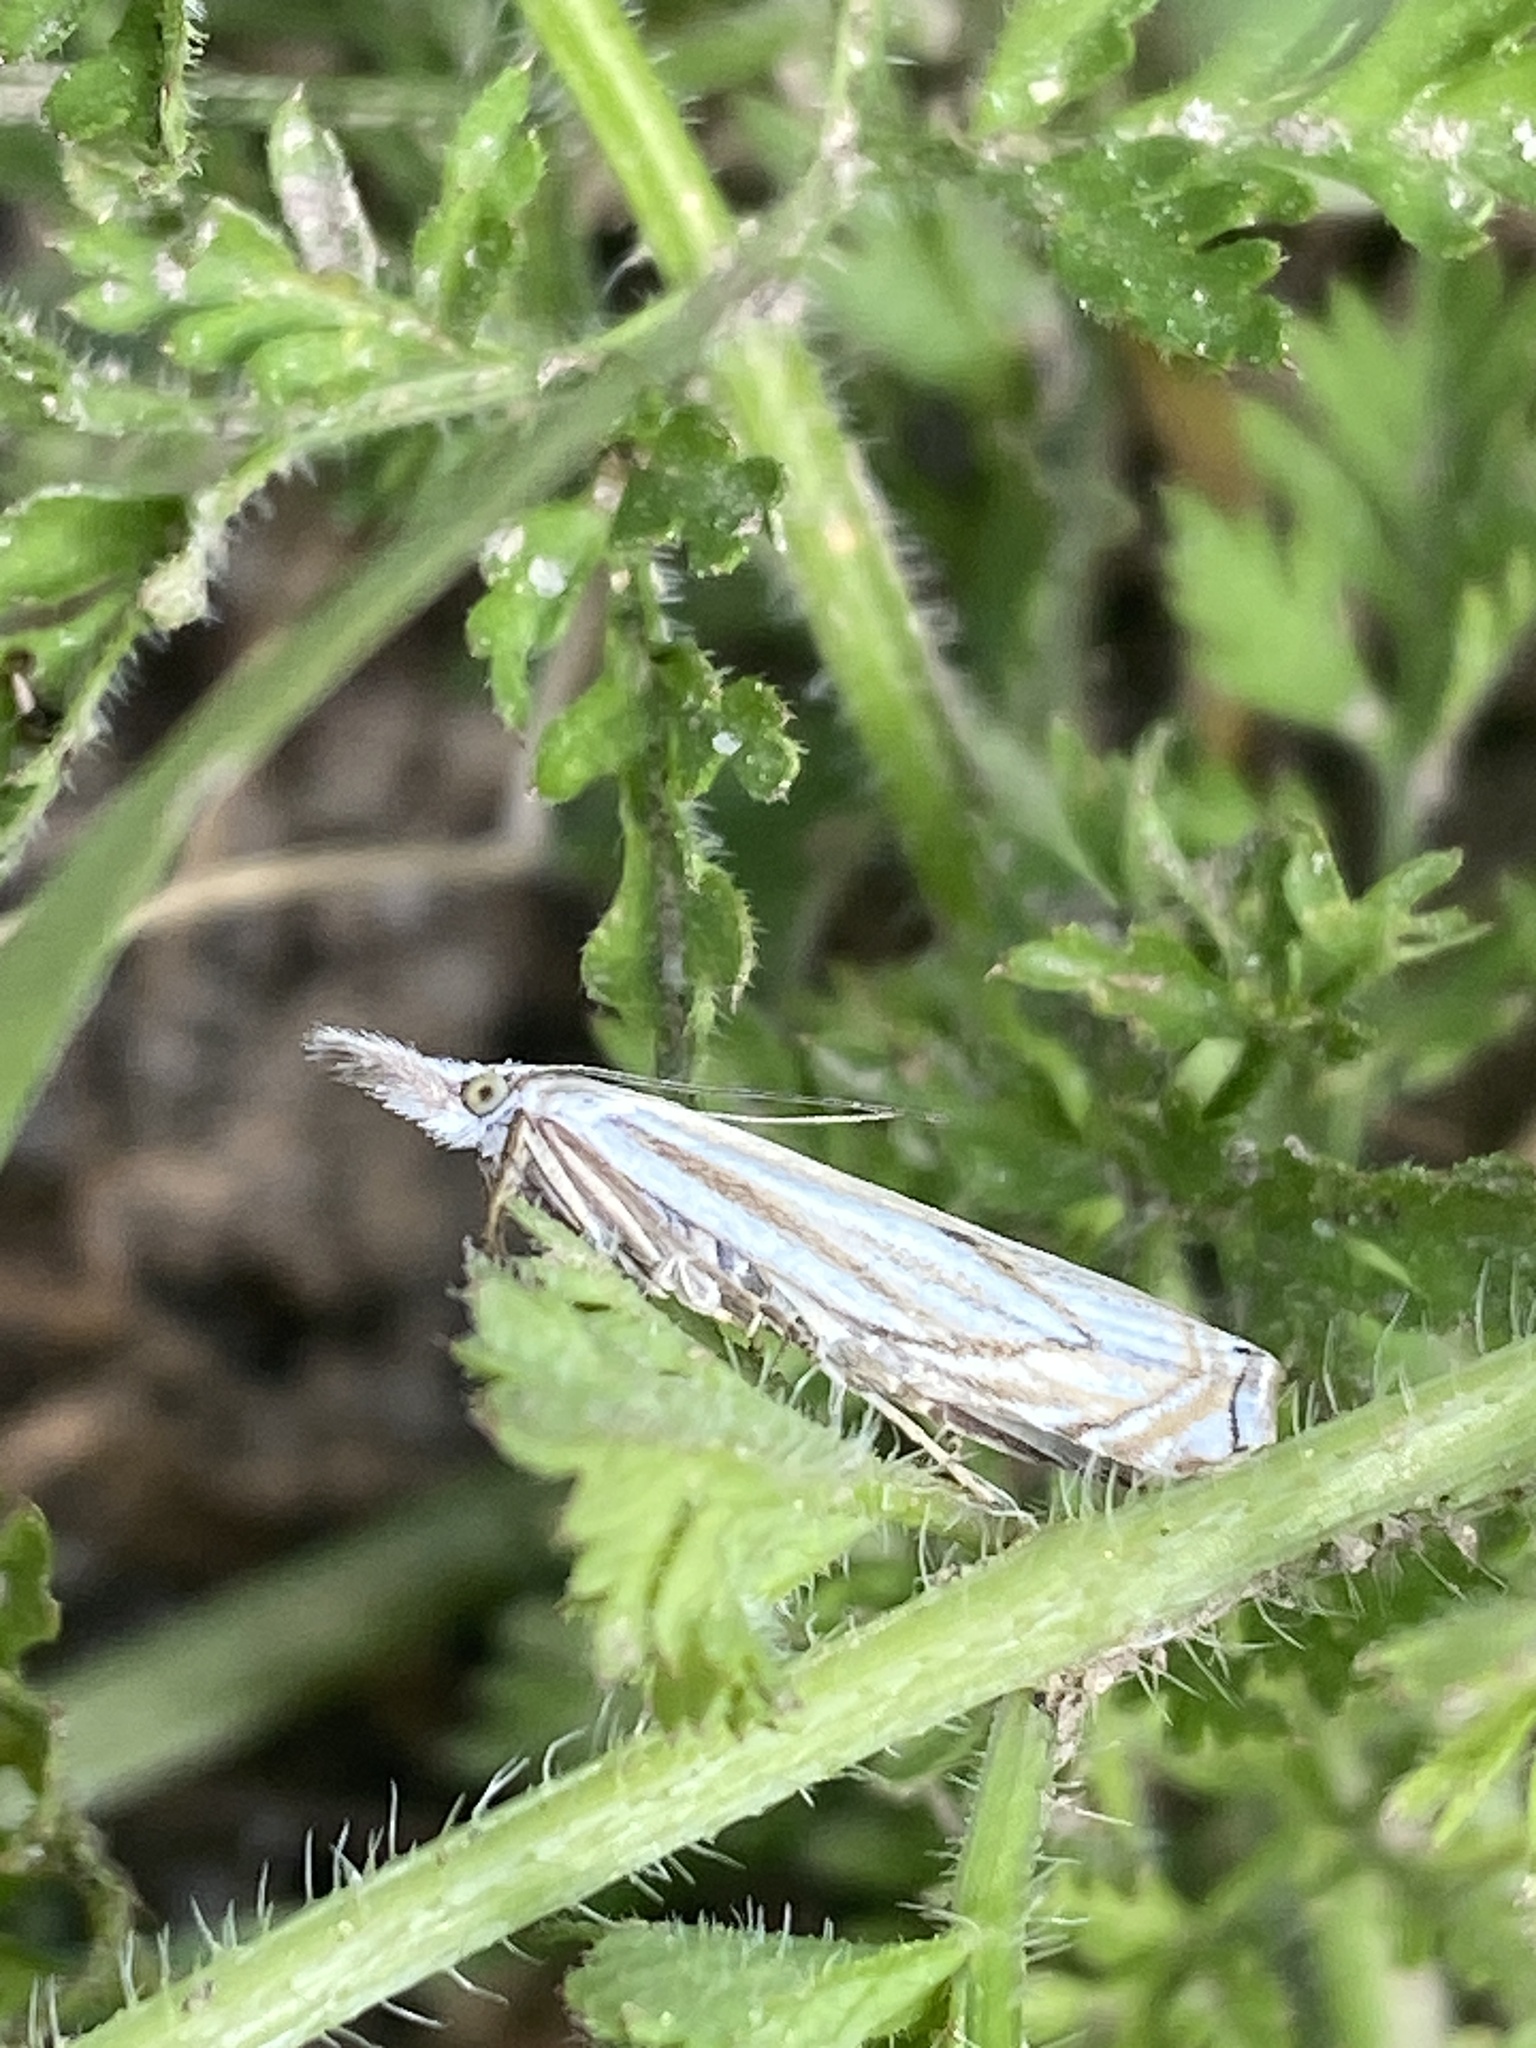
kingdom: Animalia
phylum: Arthropoda
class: Insecta
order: Lepidoptera
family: Crambidae
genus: Crambus
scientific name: Crambus nemorella
